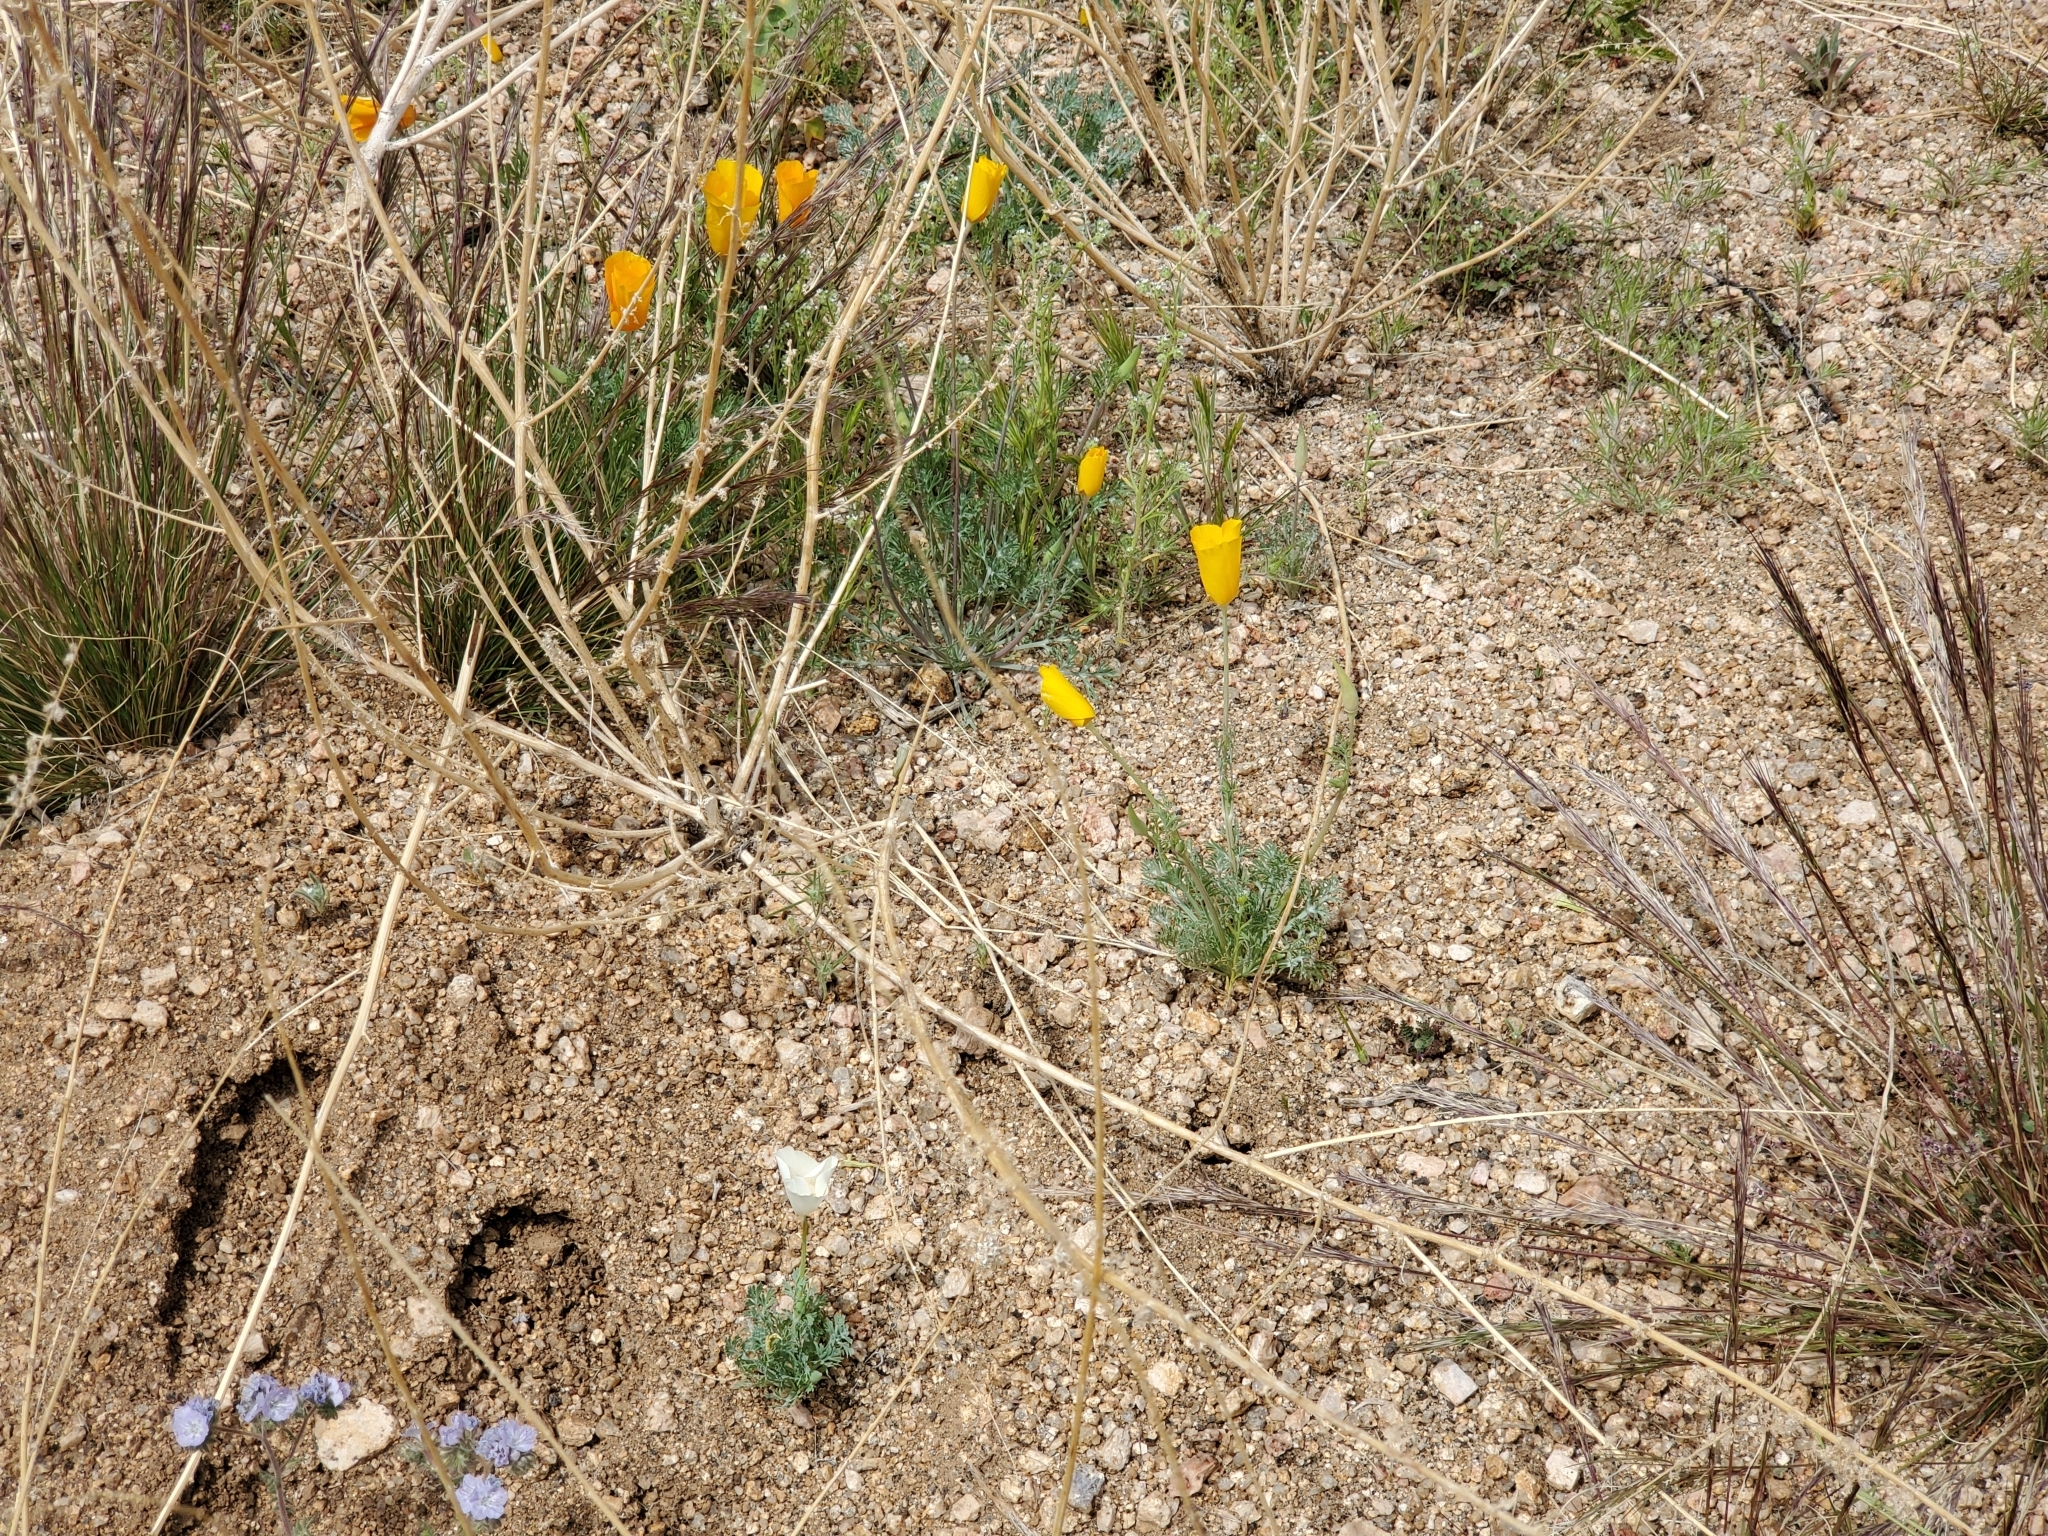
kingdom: Plantae
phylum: Tracheophyta
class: Magnoliopsida
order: Ranunculales
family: Papaveraceae
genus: Eschscholzia
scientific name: Eschscholzia californica
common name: California poppy
